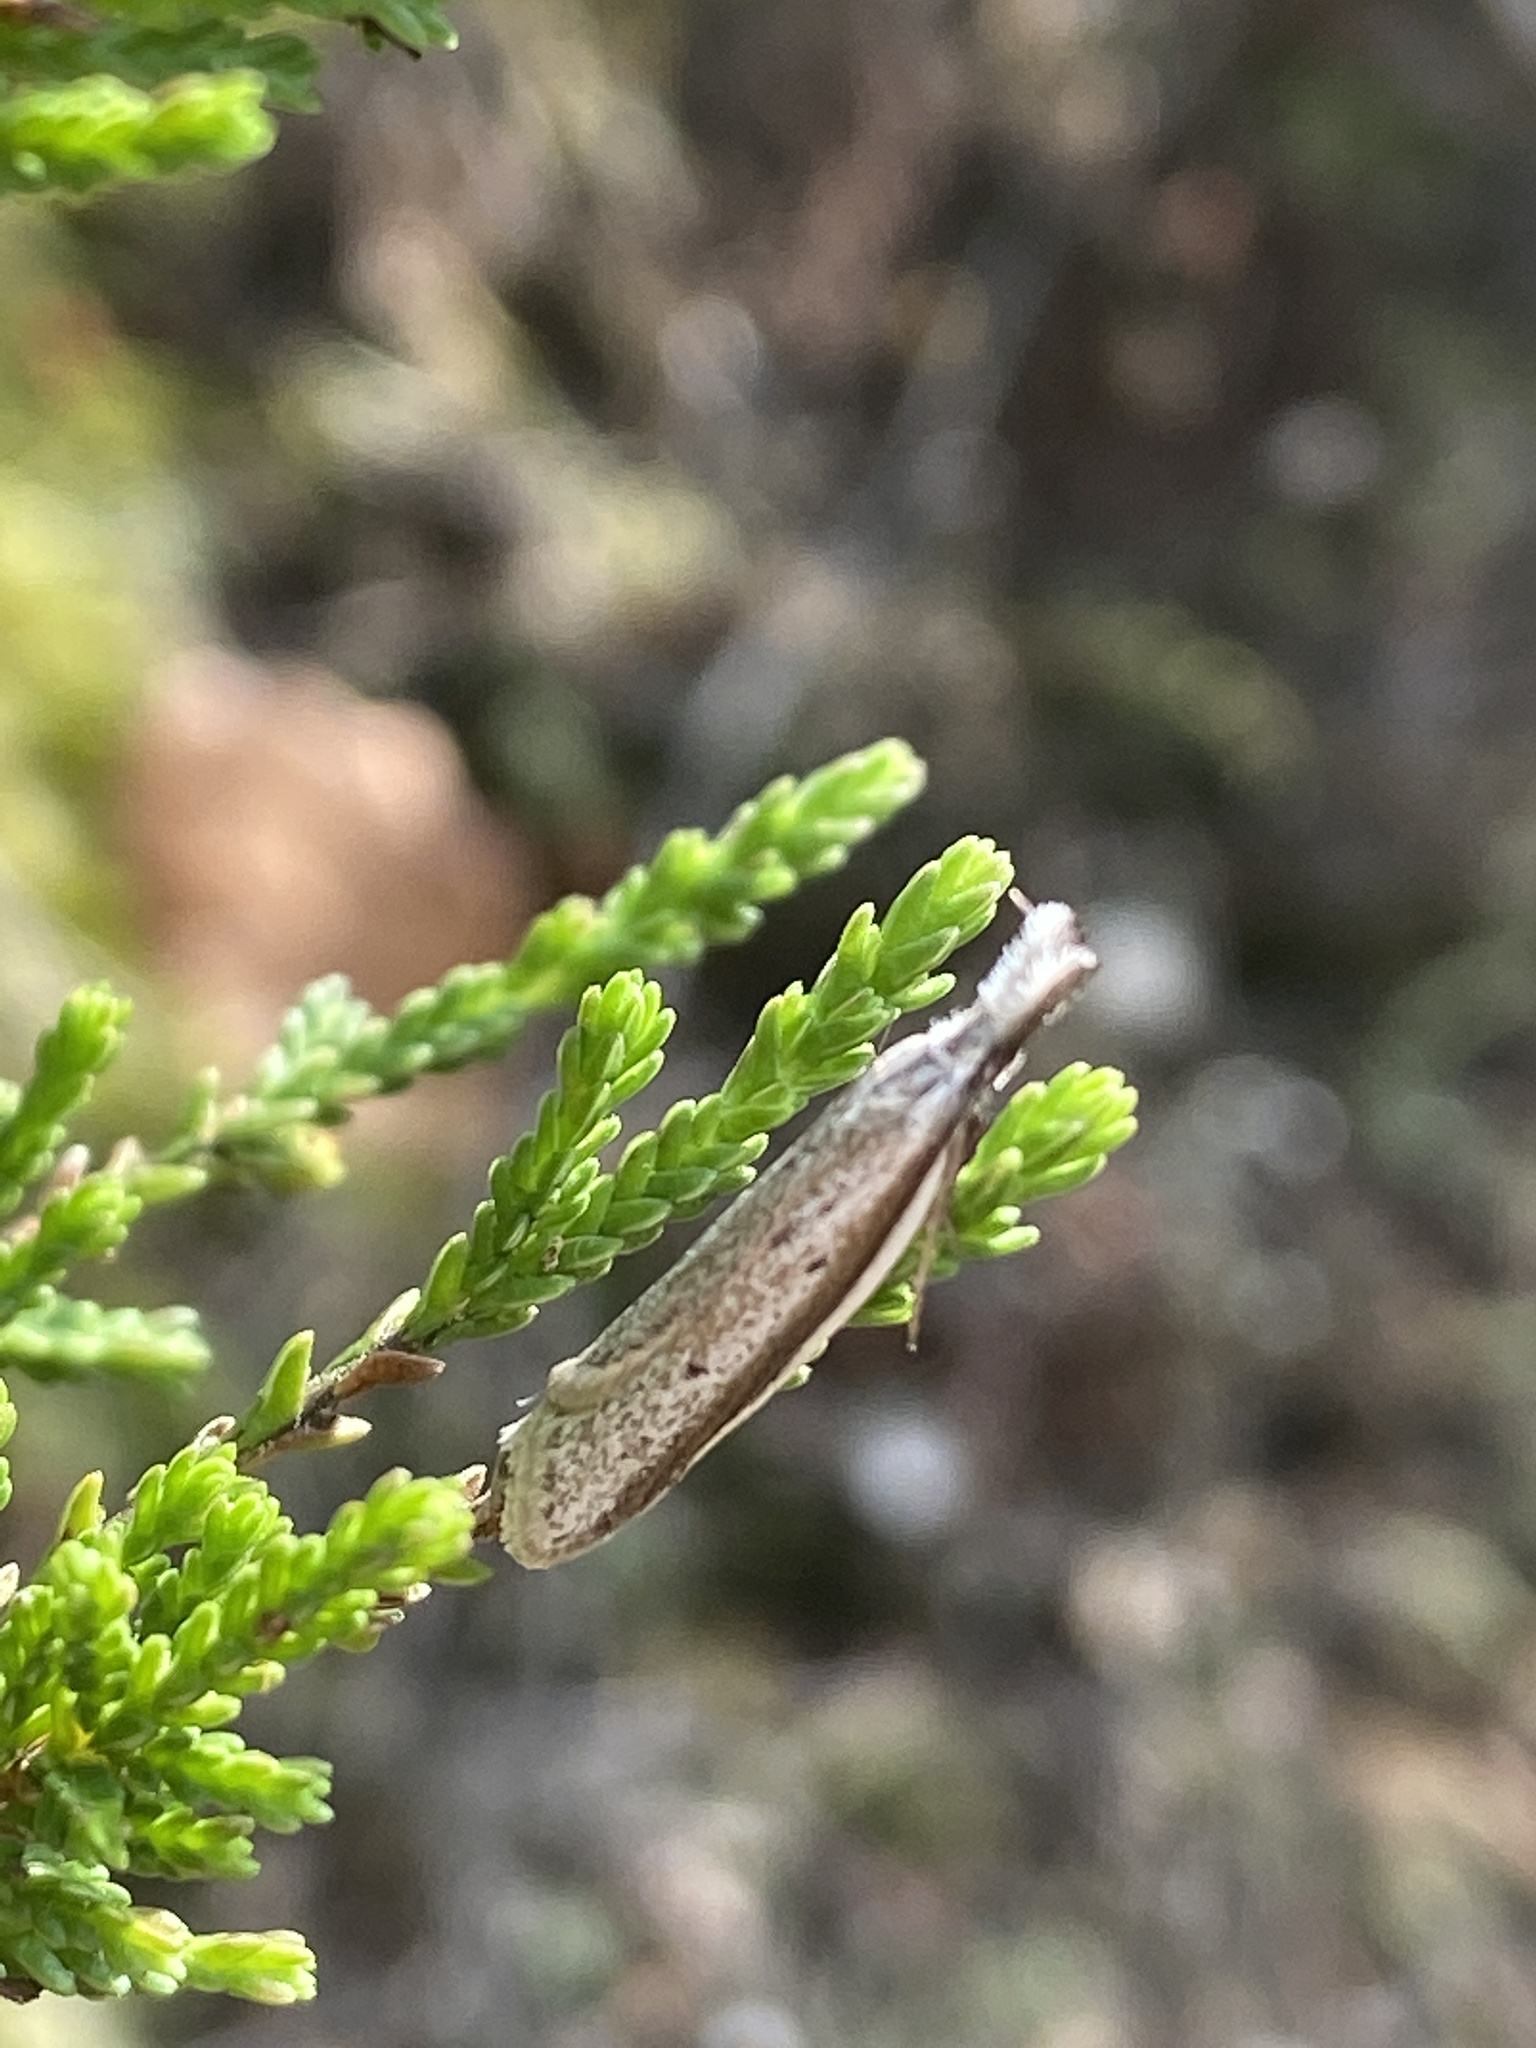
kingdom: Animalia
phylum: Arthropoda
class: Insecta
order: Lepidoptera
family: Oecophoridae
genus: Pleurota
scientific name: Pleurota bicostella
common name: Light streak
